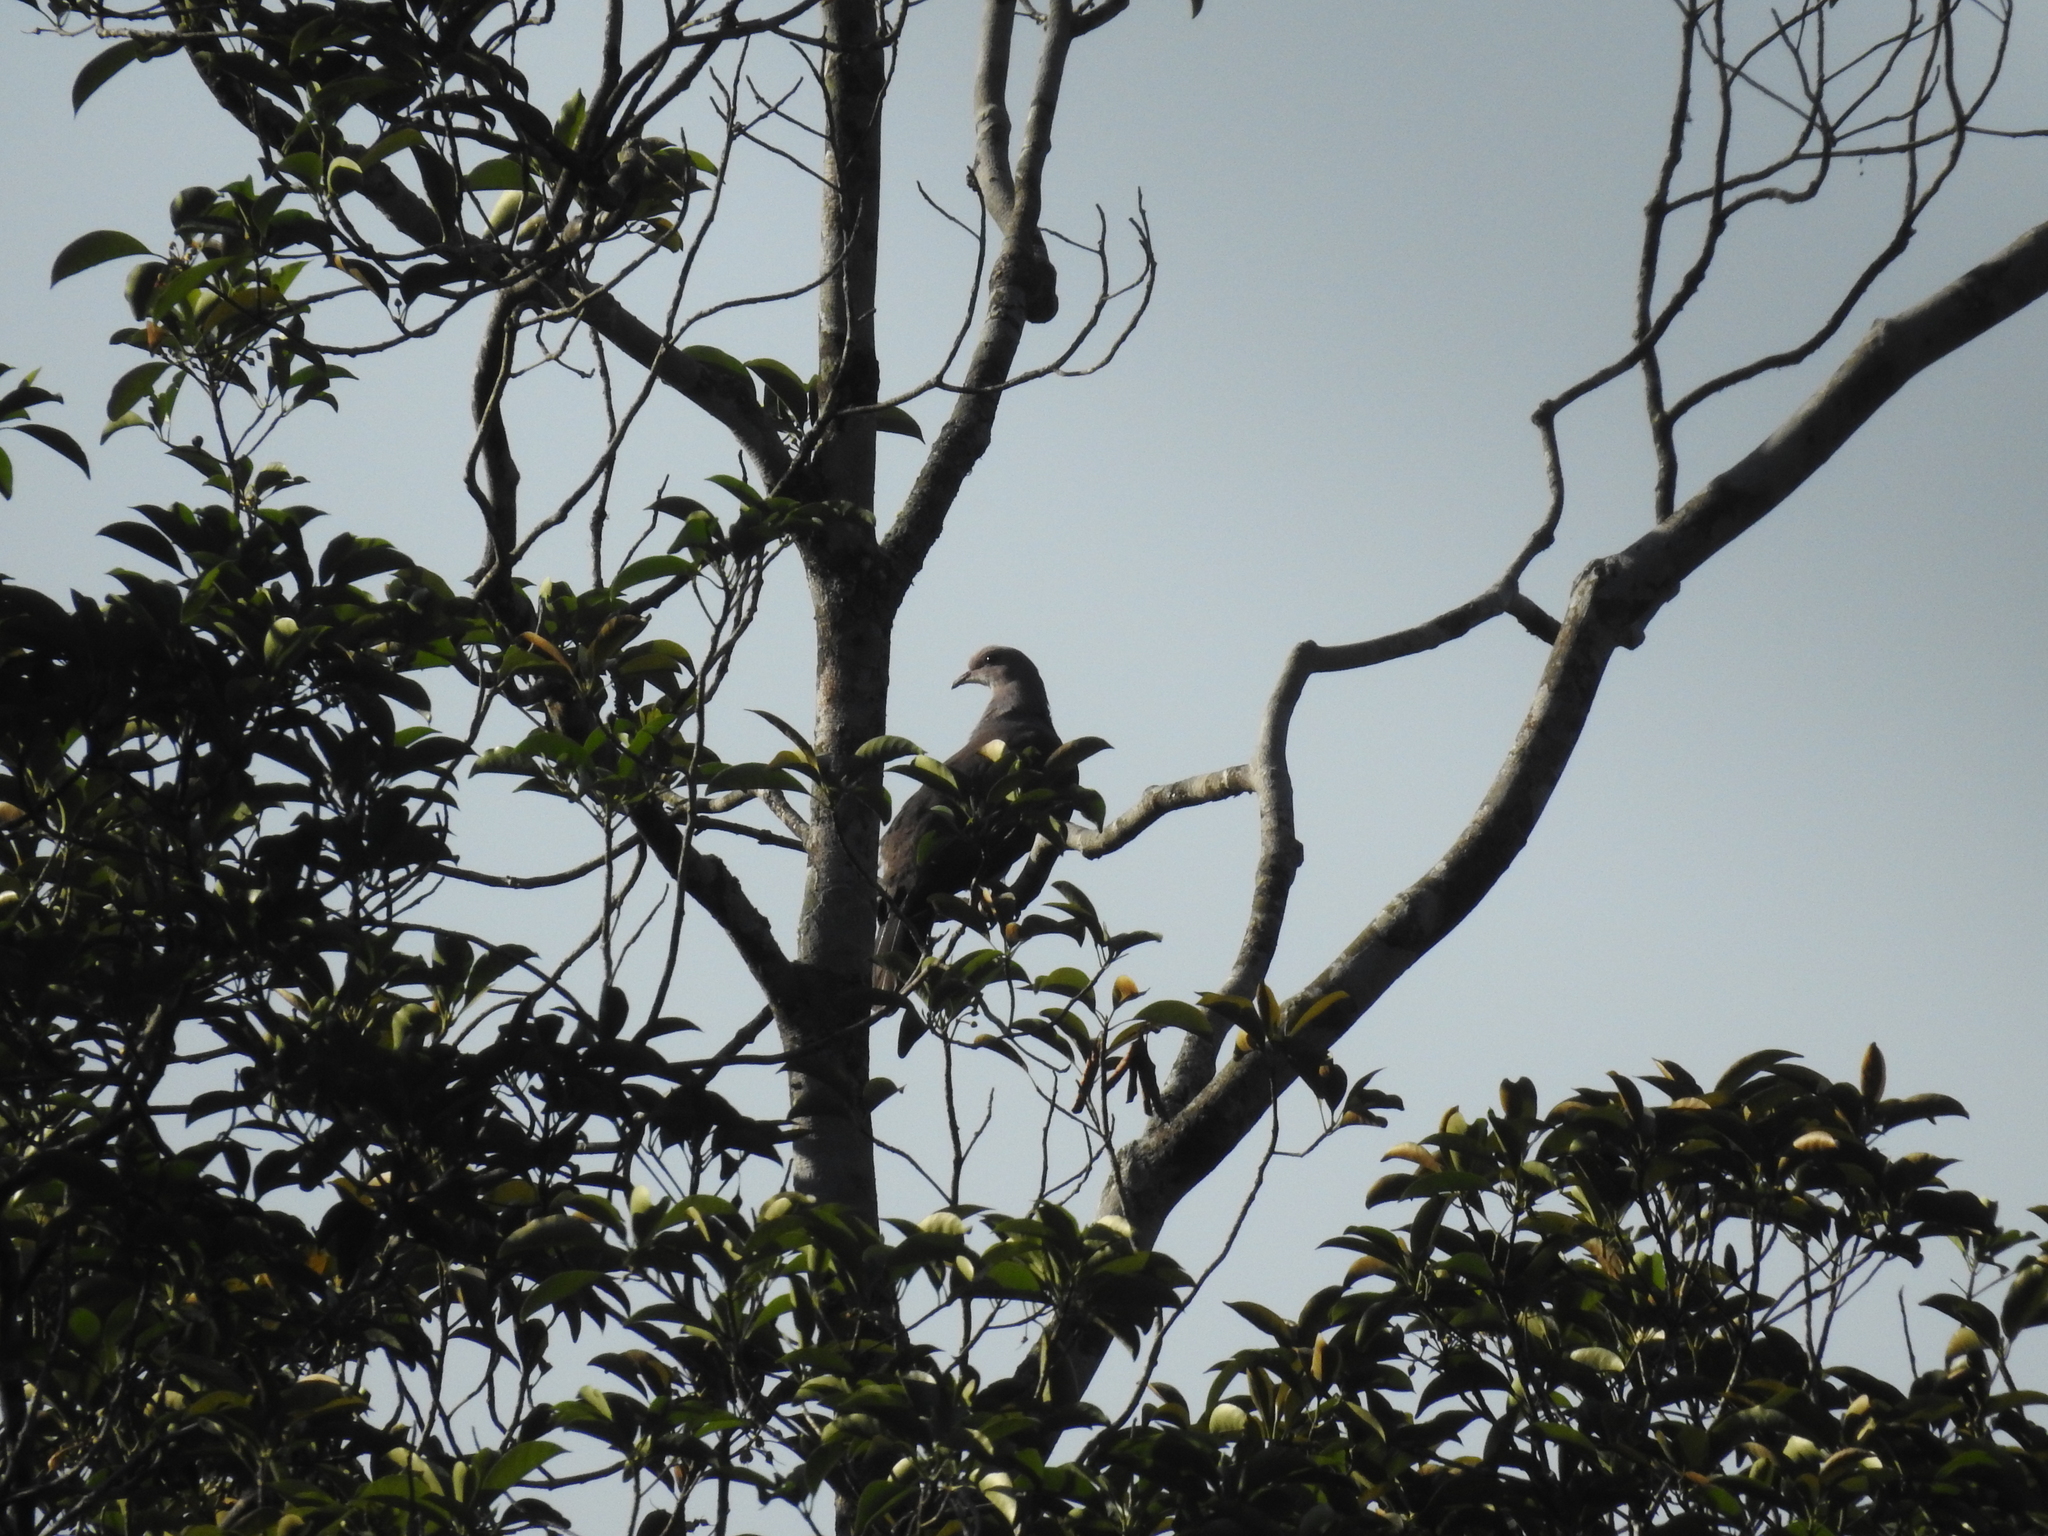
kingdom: Animalia
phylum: Chordata
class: Aves
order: Columbiformes
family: Columbidae
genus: Ducula
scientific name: Ducula badia
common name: Mountain imperial pigeon
